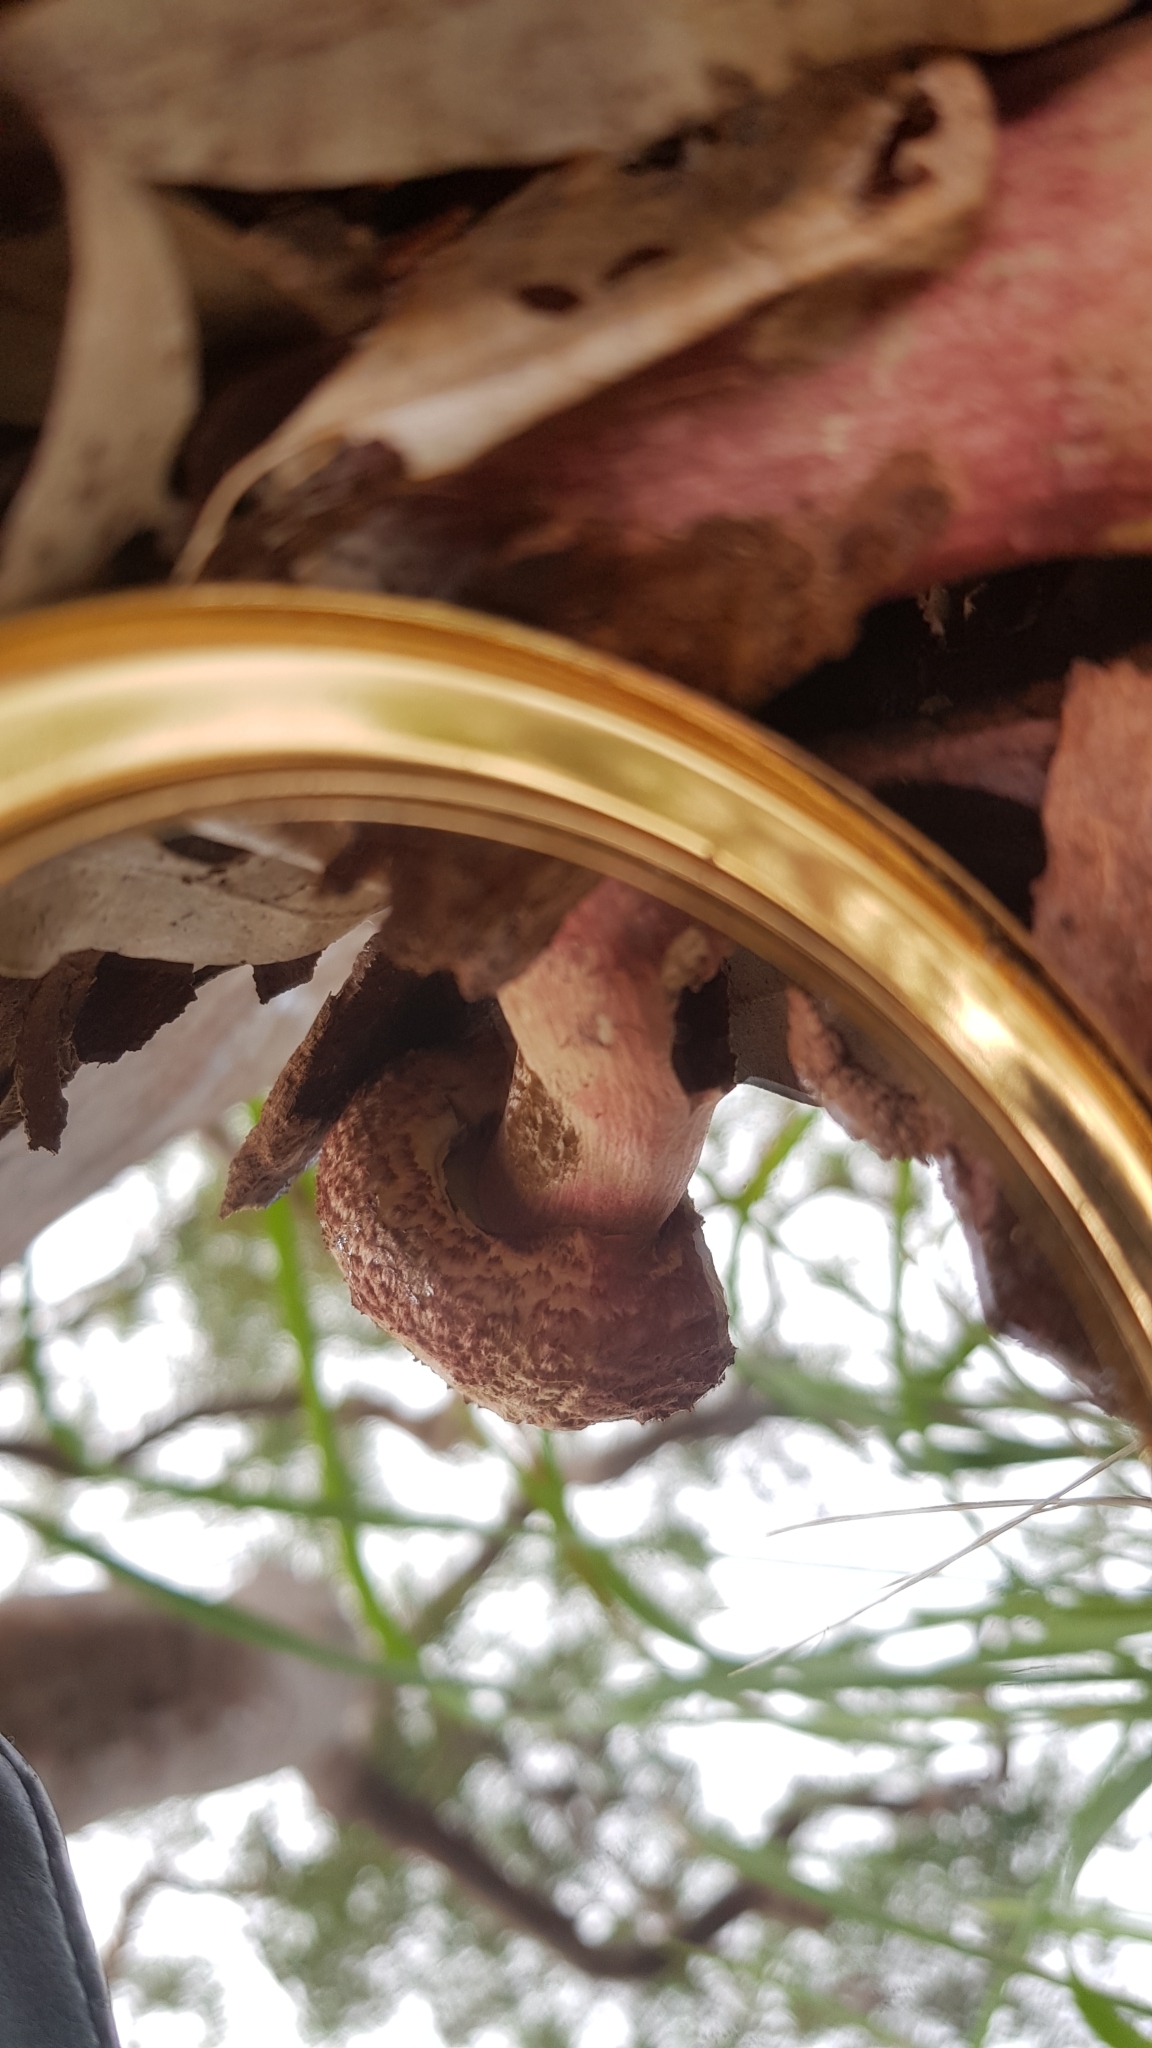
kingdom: Fungi
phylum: Basidiomycota
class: Agaricomycetes
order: Boletales
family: Boletaceae
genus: Boletellus
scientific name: Boletellus emodensis
